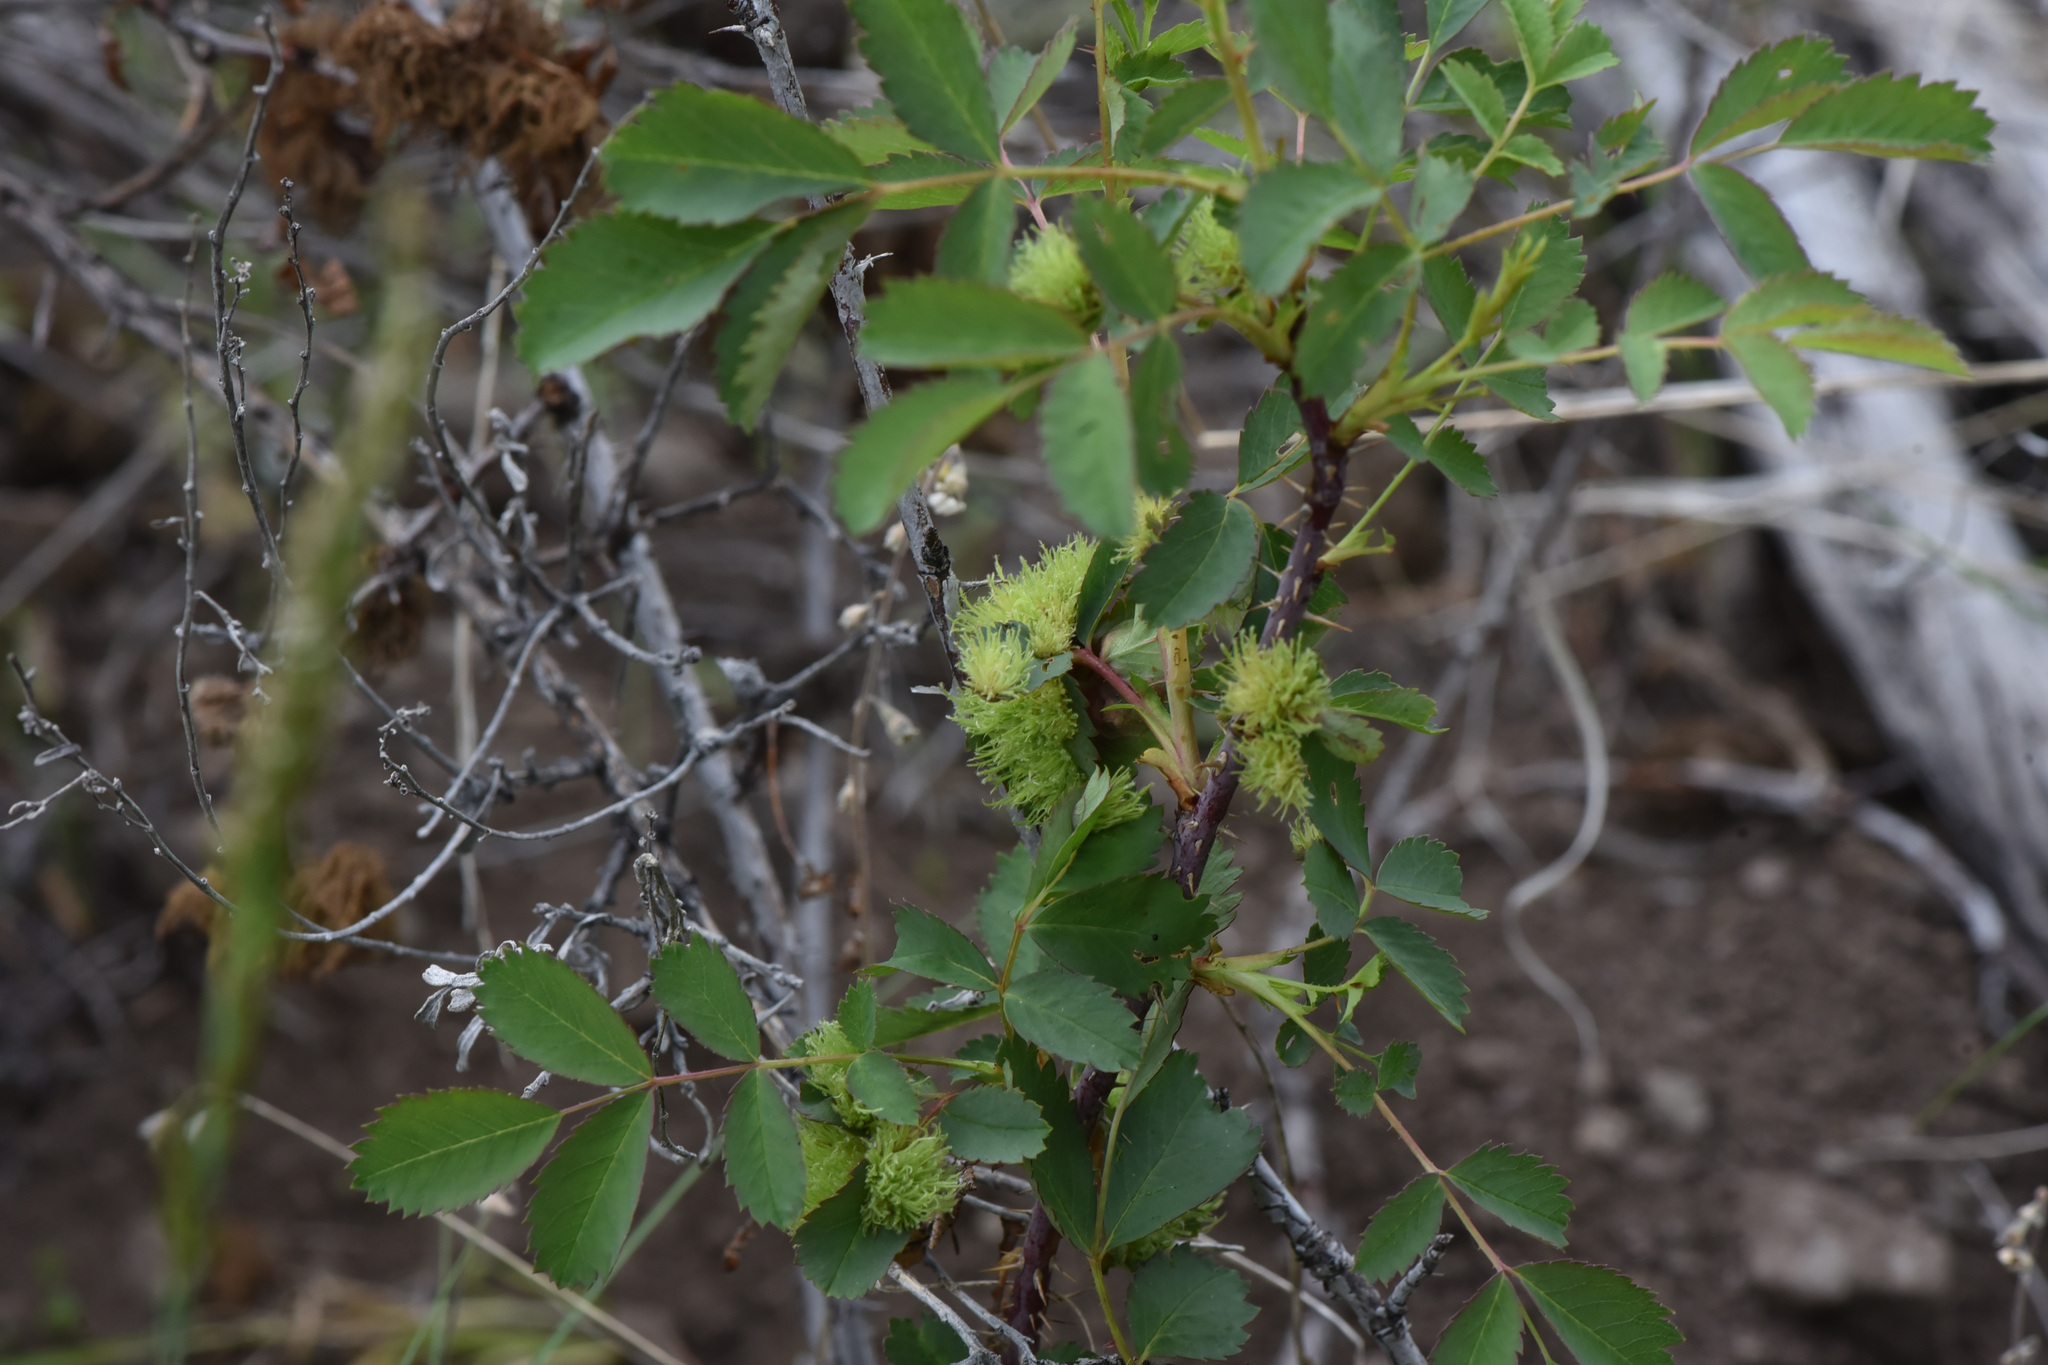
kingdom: Plantae
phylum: Tracheophyta
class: Magnoliopsida
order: Rosales
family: Rosaceae
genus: Rosa
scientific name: Rosa woodsii
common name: Woods's rose
